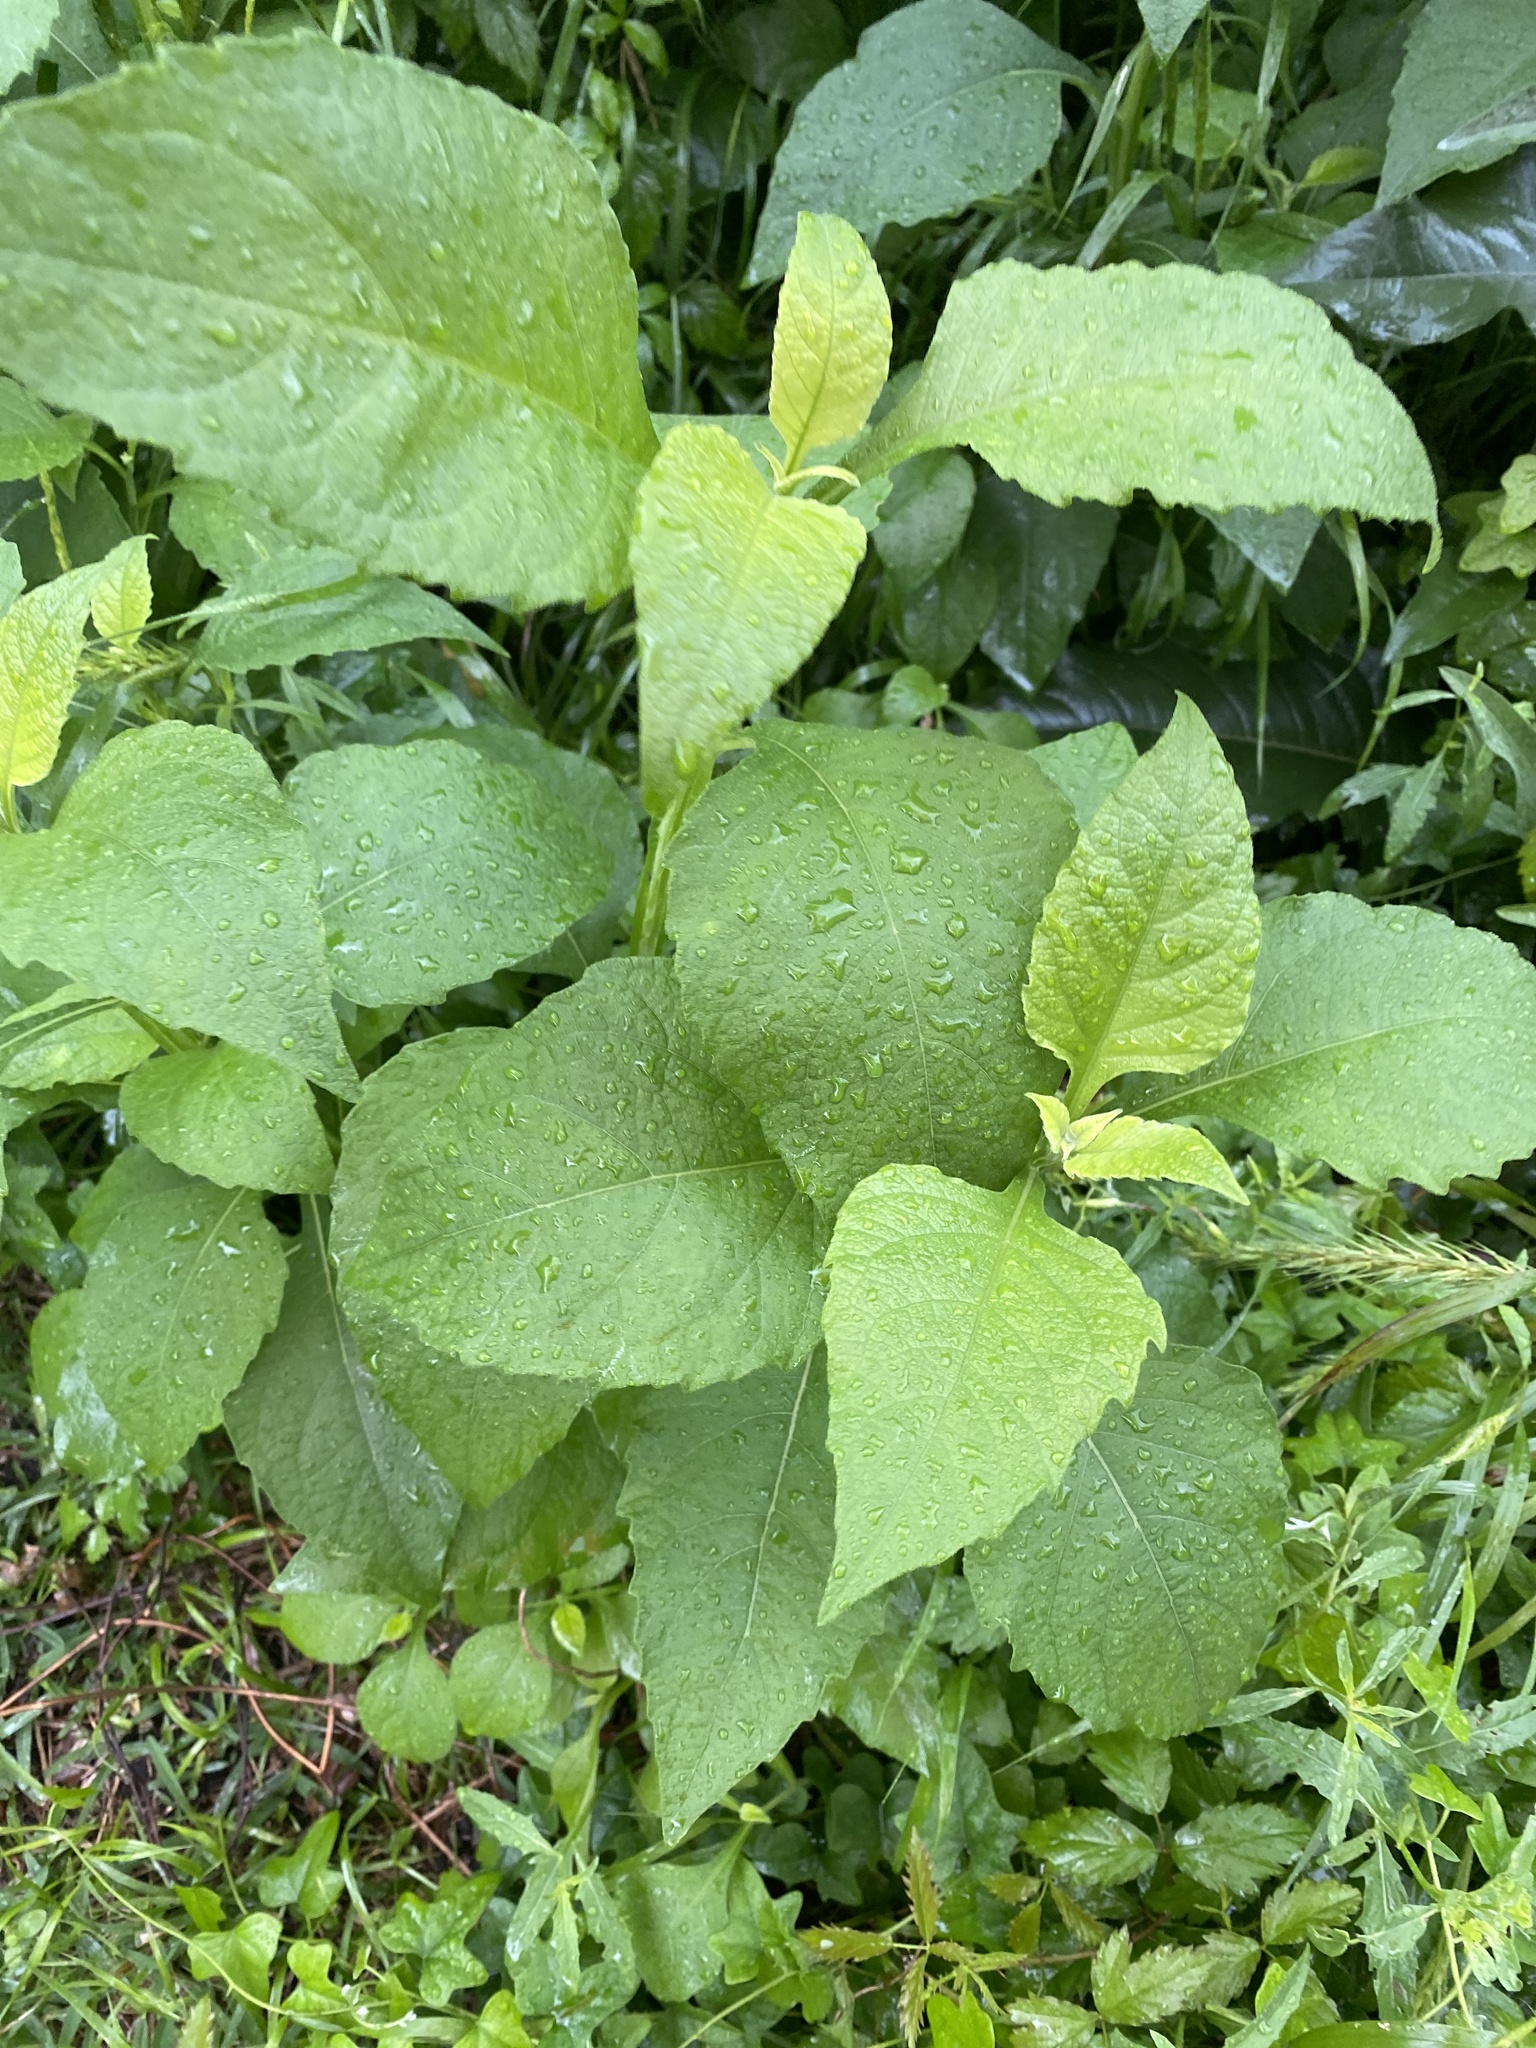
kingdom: Plantae
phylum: Tracheophyta
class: Magnoliopsida
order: Asterales
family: Asteraceae
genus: Verbesina
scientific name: Verbesina virginica
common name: Frostweed
